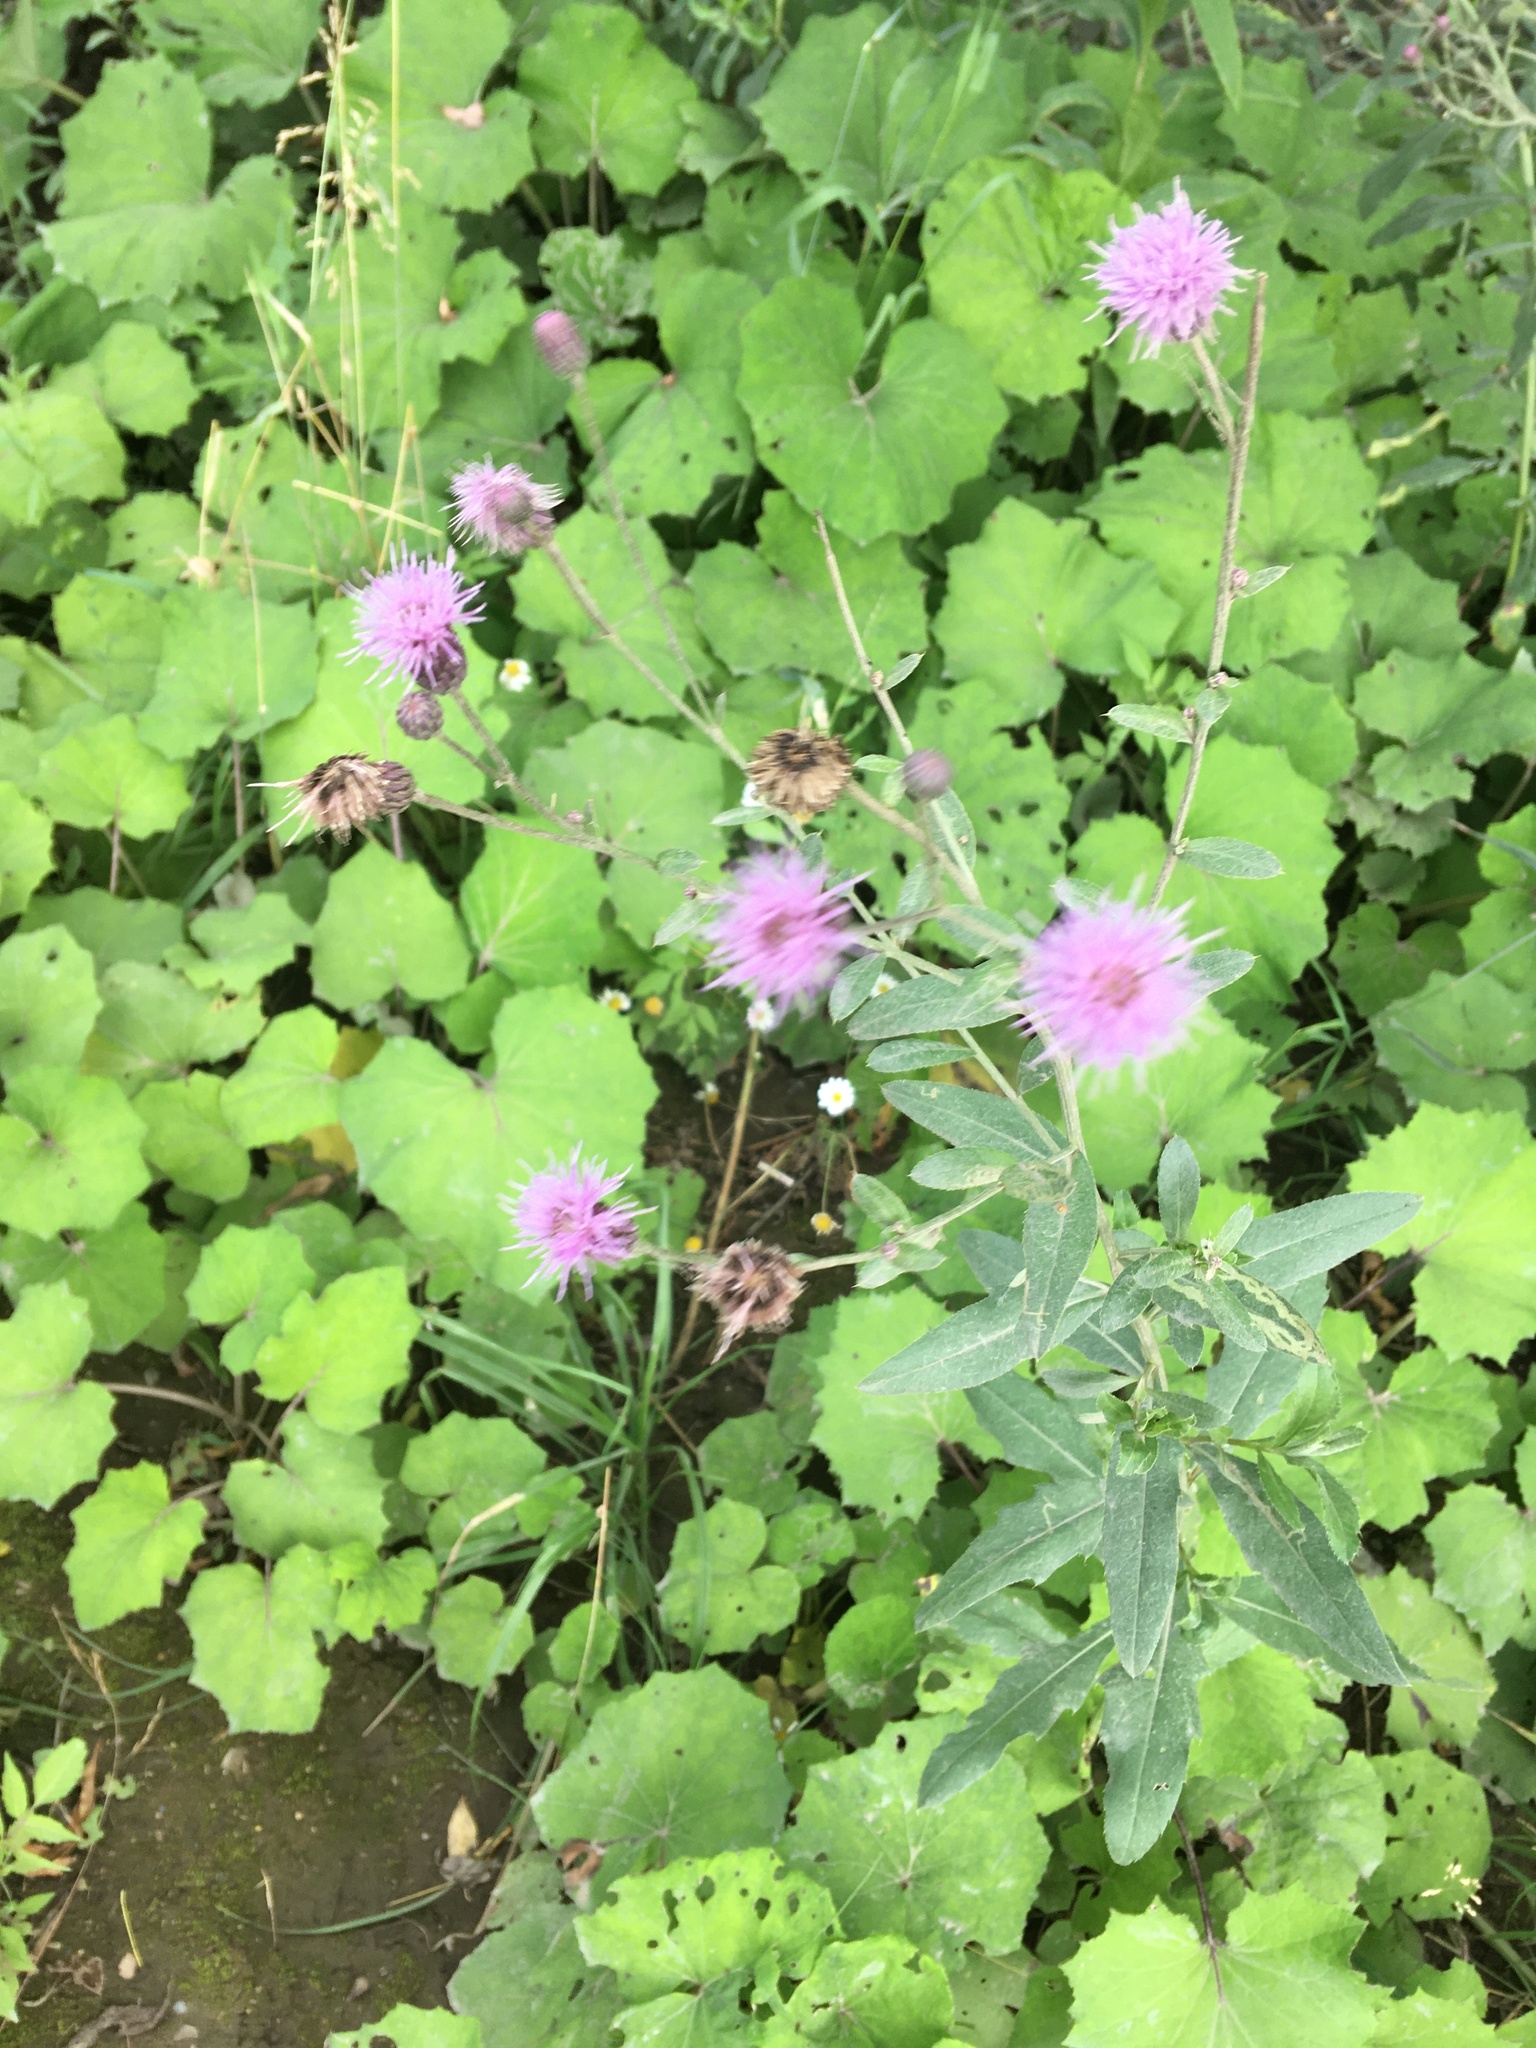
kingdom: Plantae
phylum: Tracheophyta
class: Magnoliopsida
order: Asterales
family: Asteraceae
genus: Cirsium
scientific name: Cirsium arvense
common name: Creeping thistle
